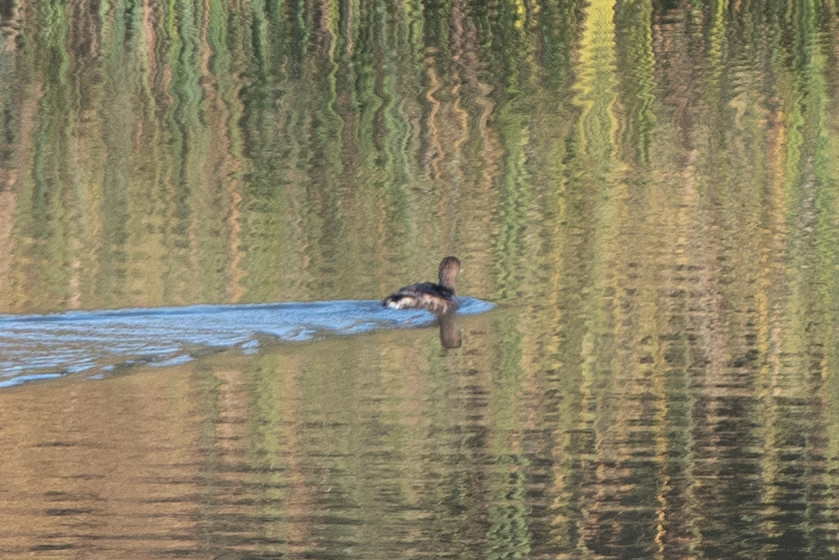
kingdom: Animalia
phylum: Chordata
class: Aves
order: Podicipediformes
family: Podicipedidae
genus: Podilymbus
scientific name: Podilymbus podiceps
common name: Pied-billed grebe
